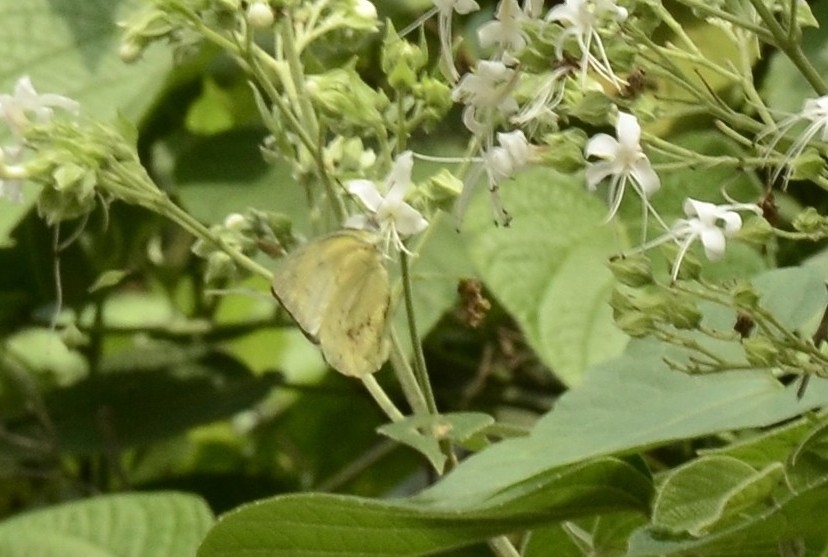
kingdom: Animalia
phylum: Arthropoda
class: Insecta
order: Lepidoptera
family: Pieridae
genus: Catopsilia
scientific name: Catopsilia pomona
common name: Common emigrant
